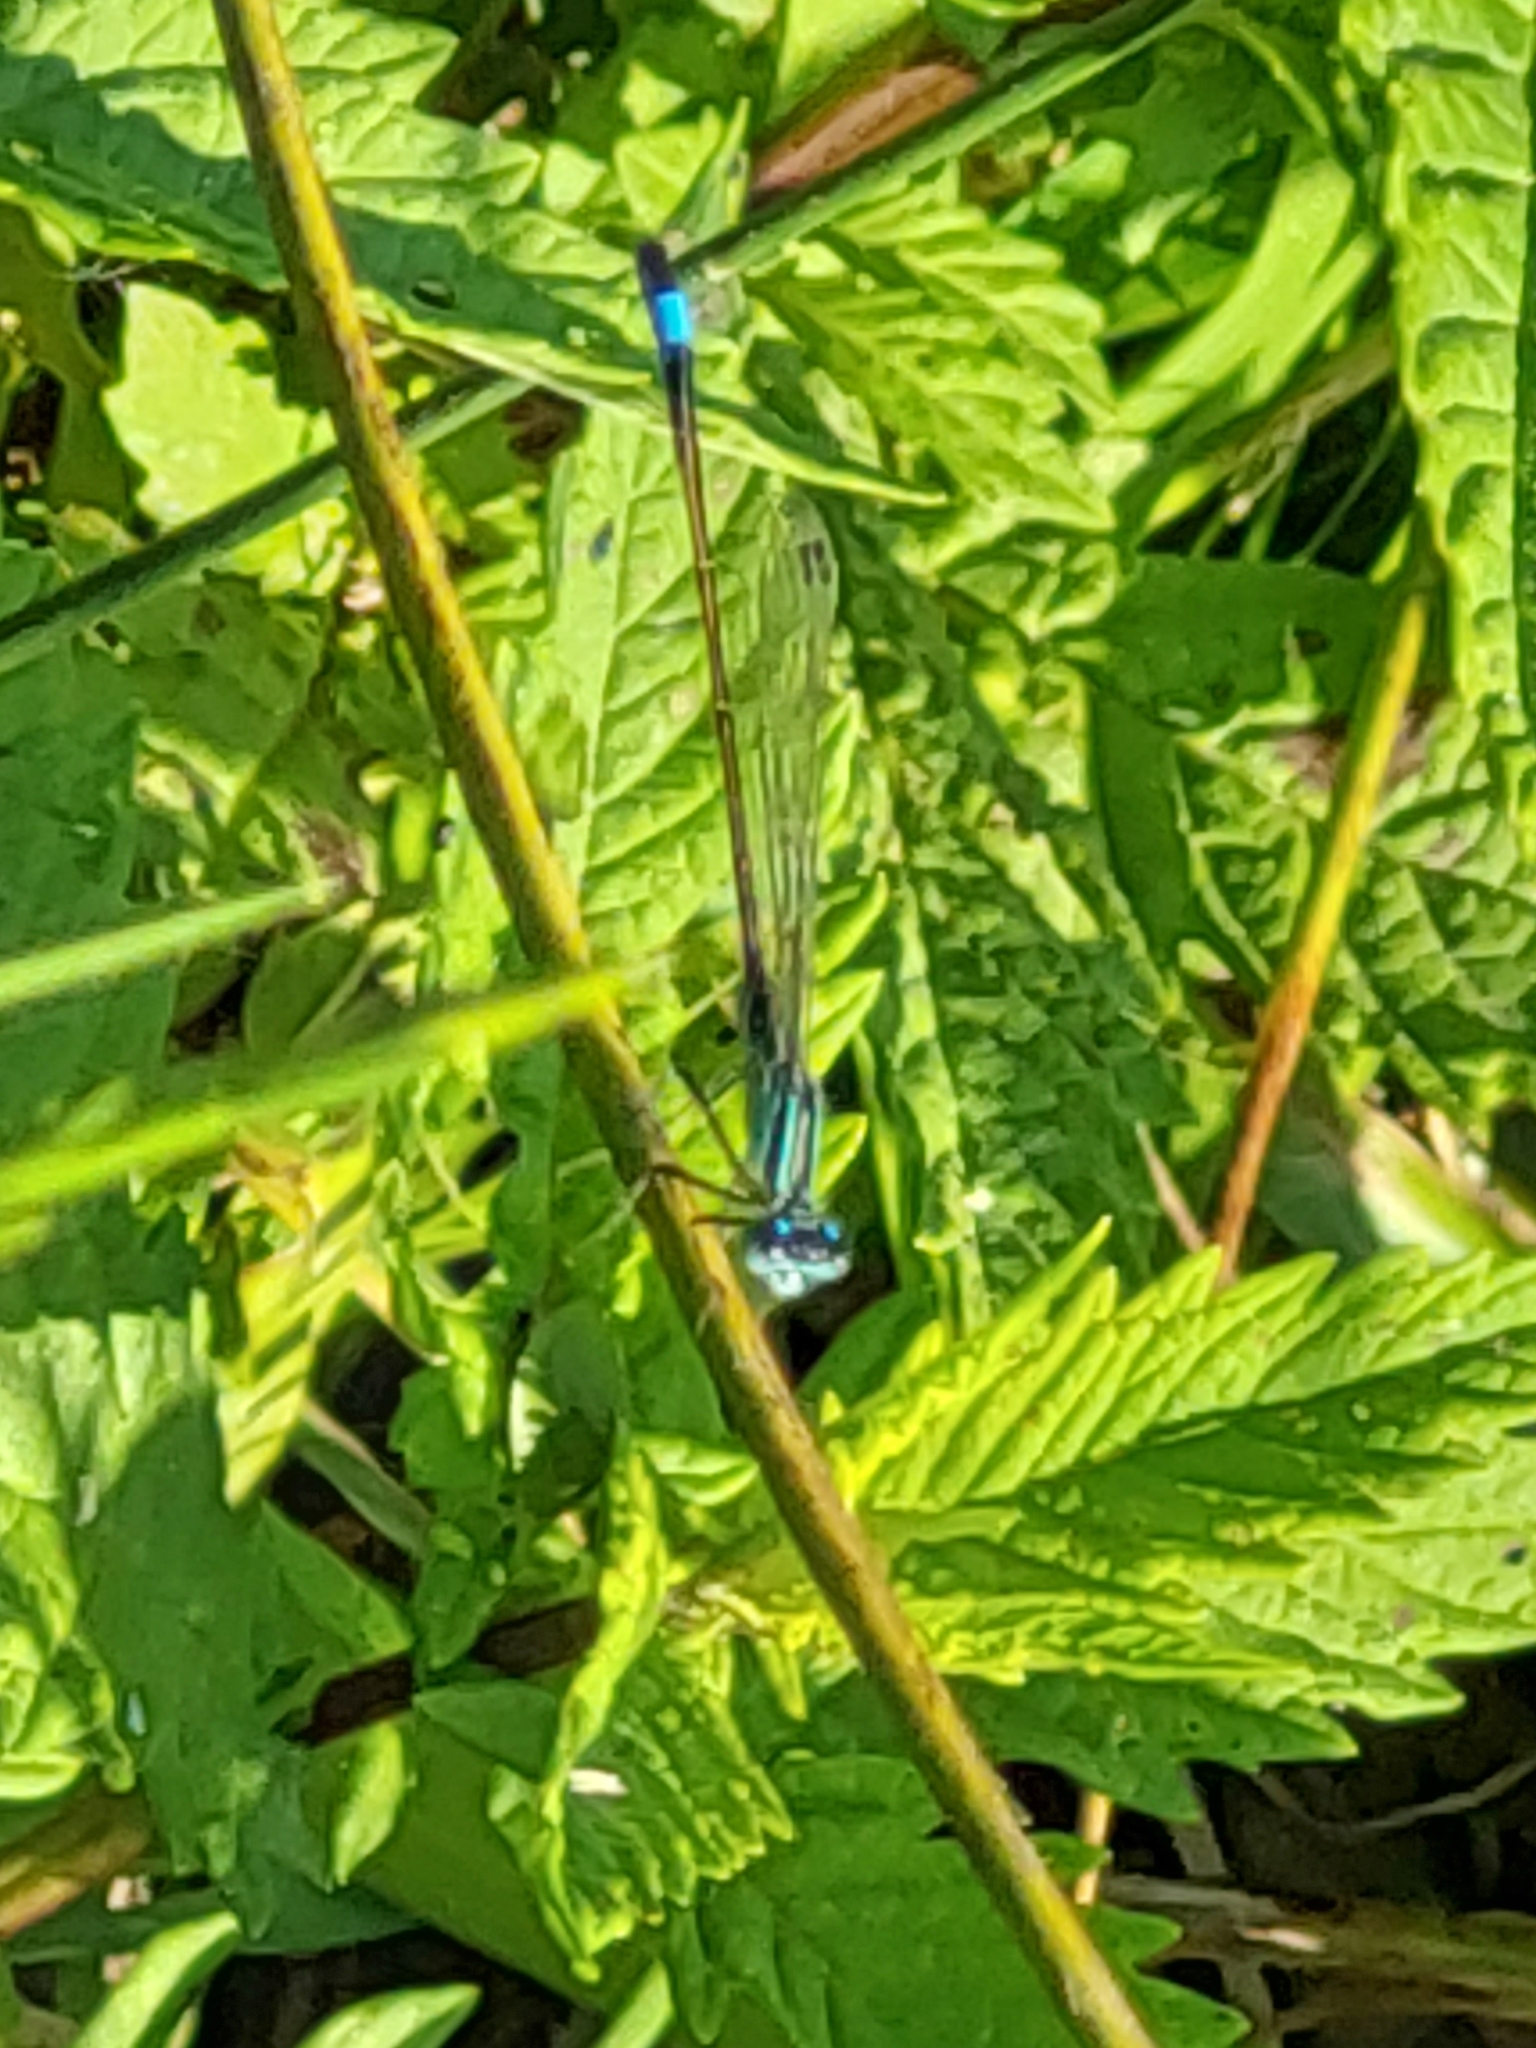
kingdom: Animalia
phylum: Arthropoda
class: Insecta
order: Odonata
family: Coenagrionidae
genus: Ischnura
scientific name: Ischnura elegans
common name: Blue-tailed damselfly
